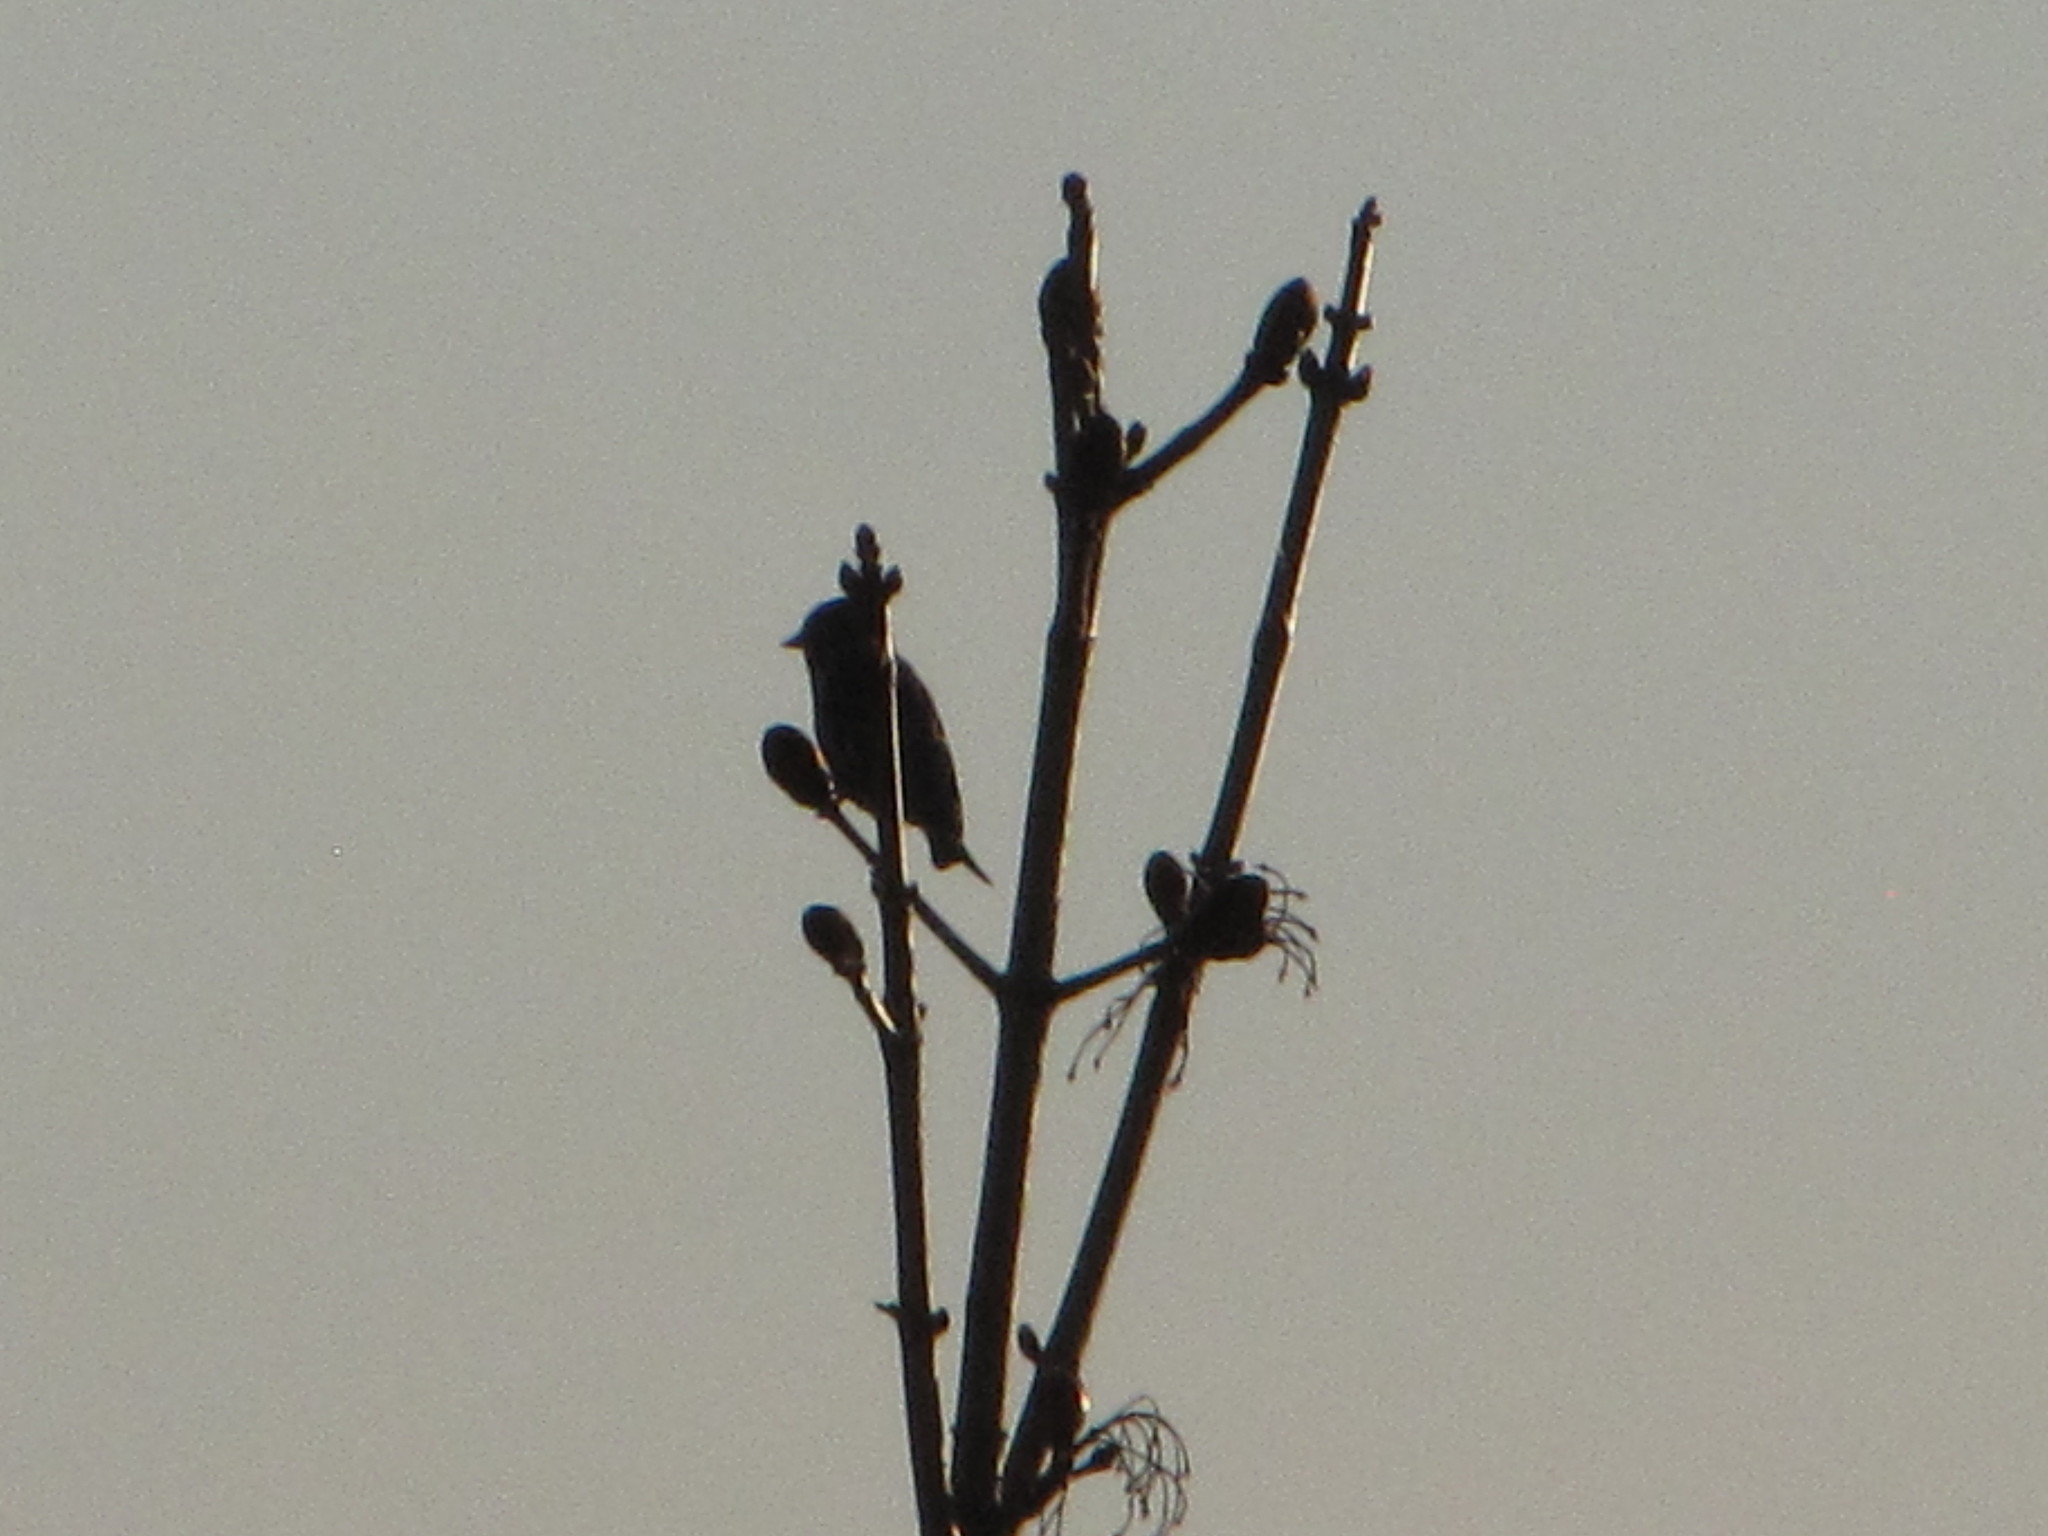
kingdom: Animalia
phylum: Chordata
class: Aves
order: Passeriformes
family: Fringillidae
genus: Spinus
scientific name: Spinus pinus
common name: Pine siskin
